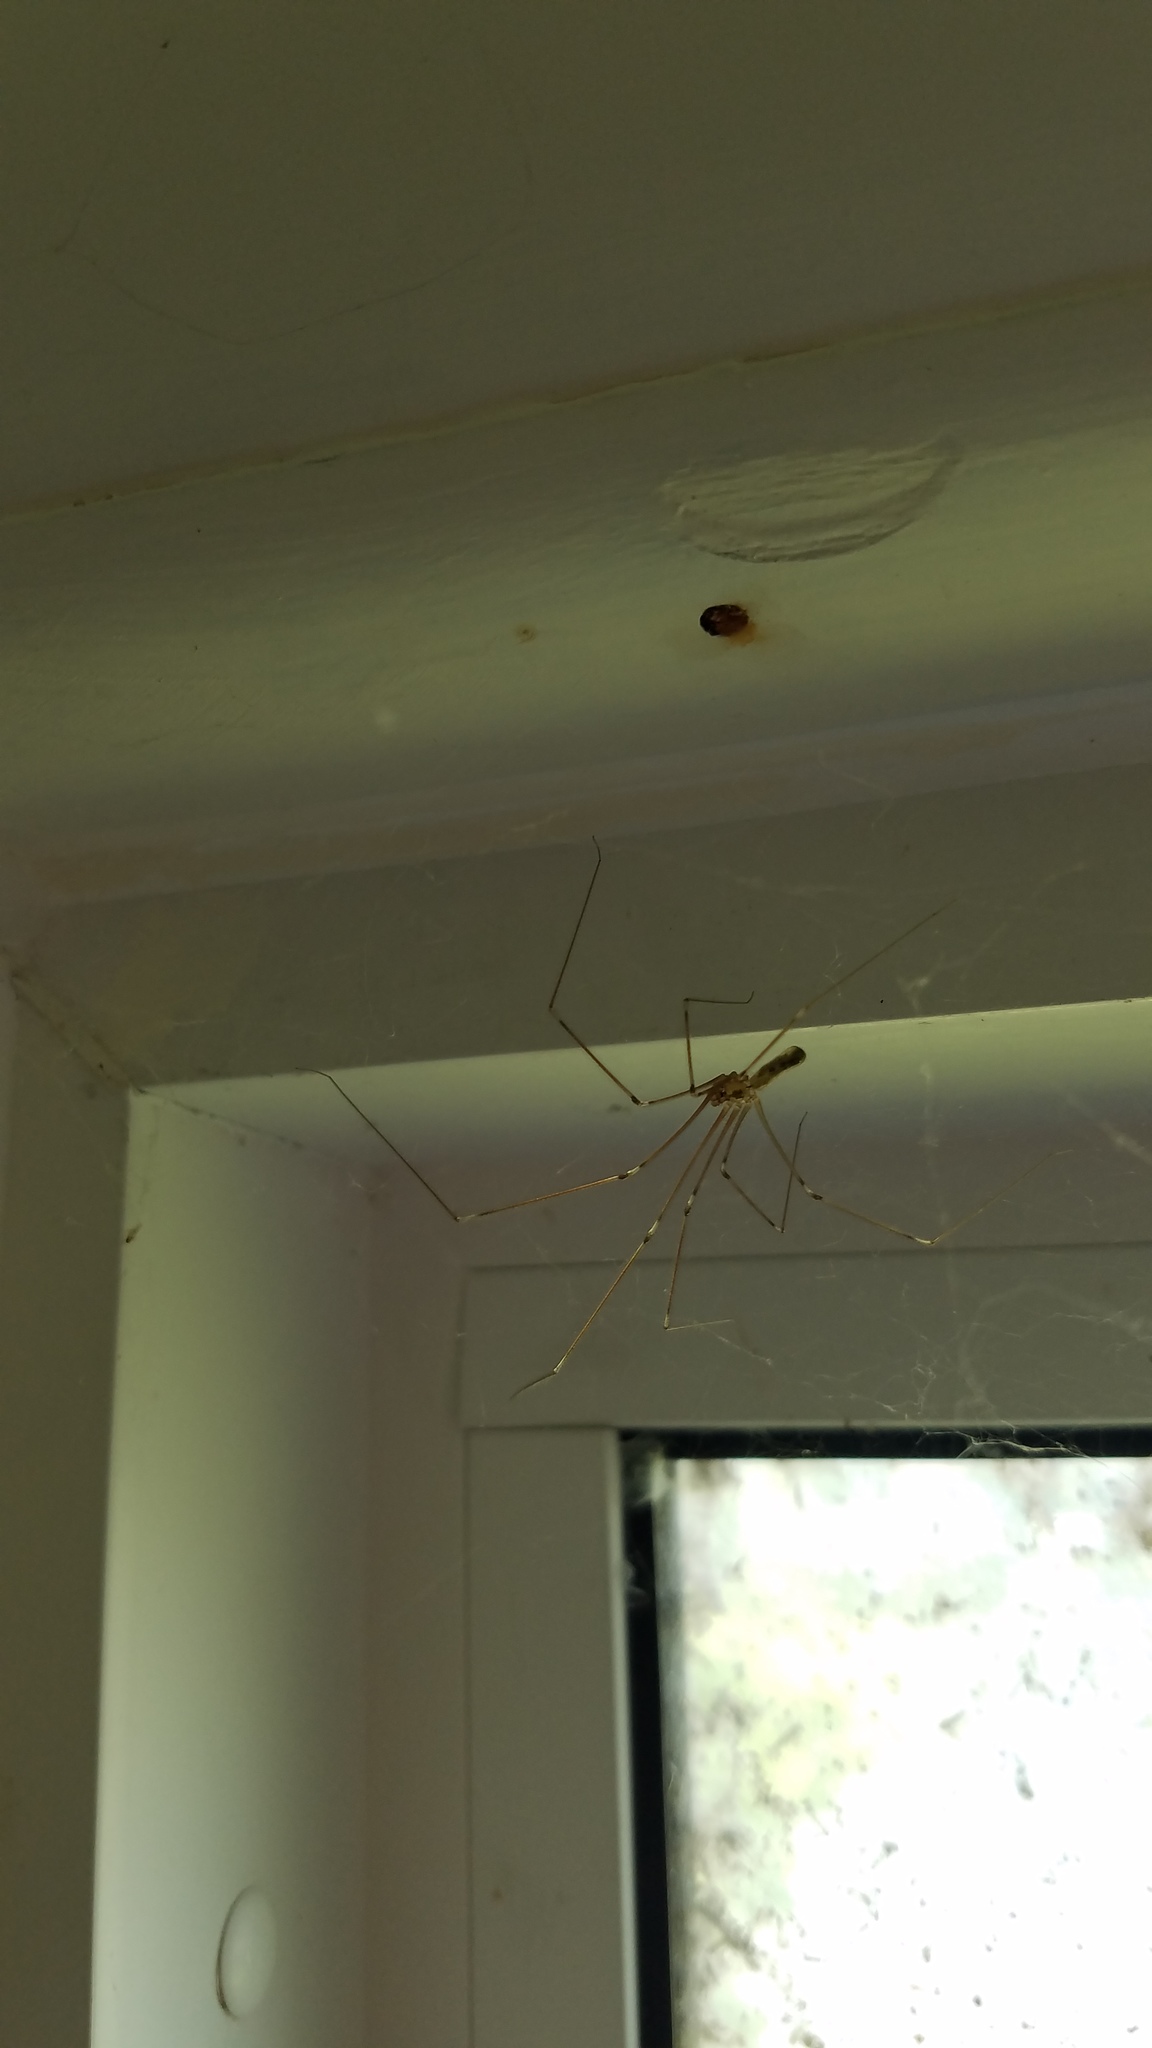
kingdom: Animalia
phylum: Arthropoda
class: Arachnida
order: Araneae
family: Pholcidae
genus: Pholcus
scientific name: Pholcus phalangioides
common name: Longbodied cellar spider
